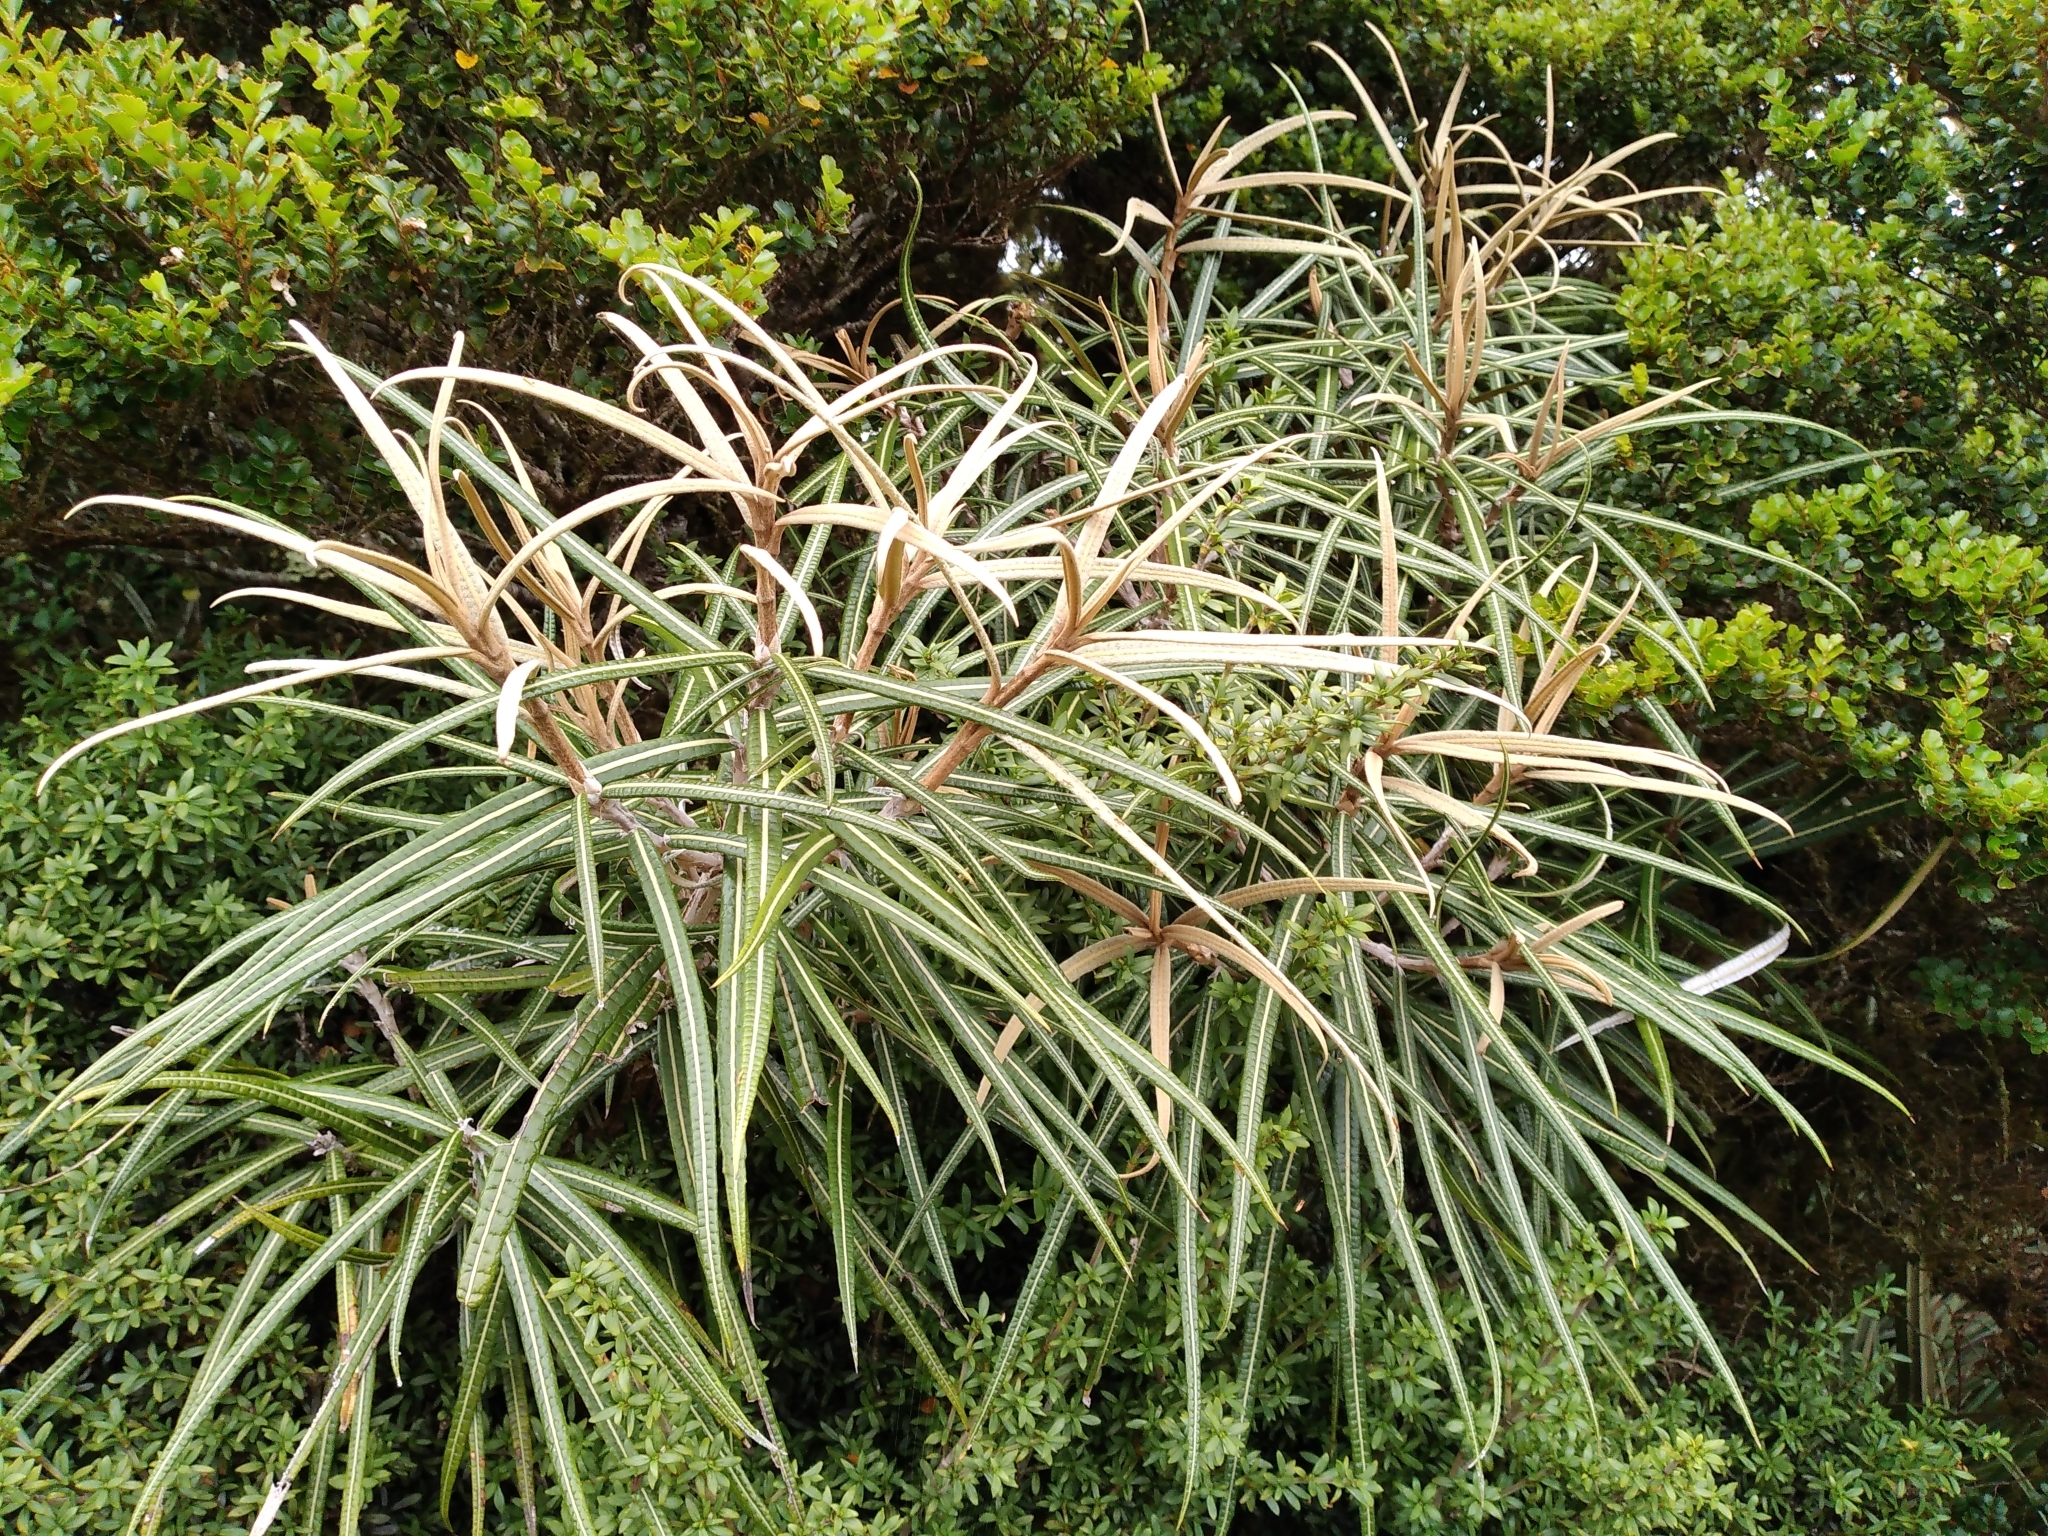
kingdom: Plantae
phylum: Tracheophyta
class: Magnoliopsida
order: Asterales
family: Asteraceae
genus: Olearia
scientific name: Olearia lacunosa
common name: Lancewood tree daisy
